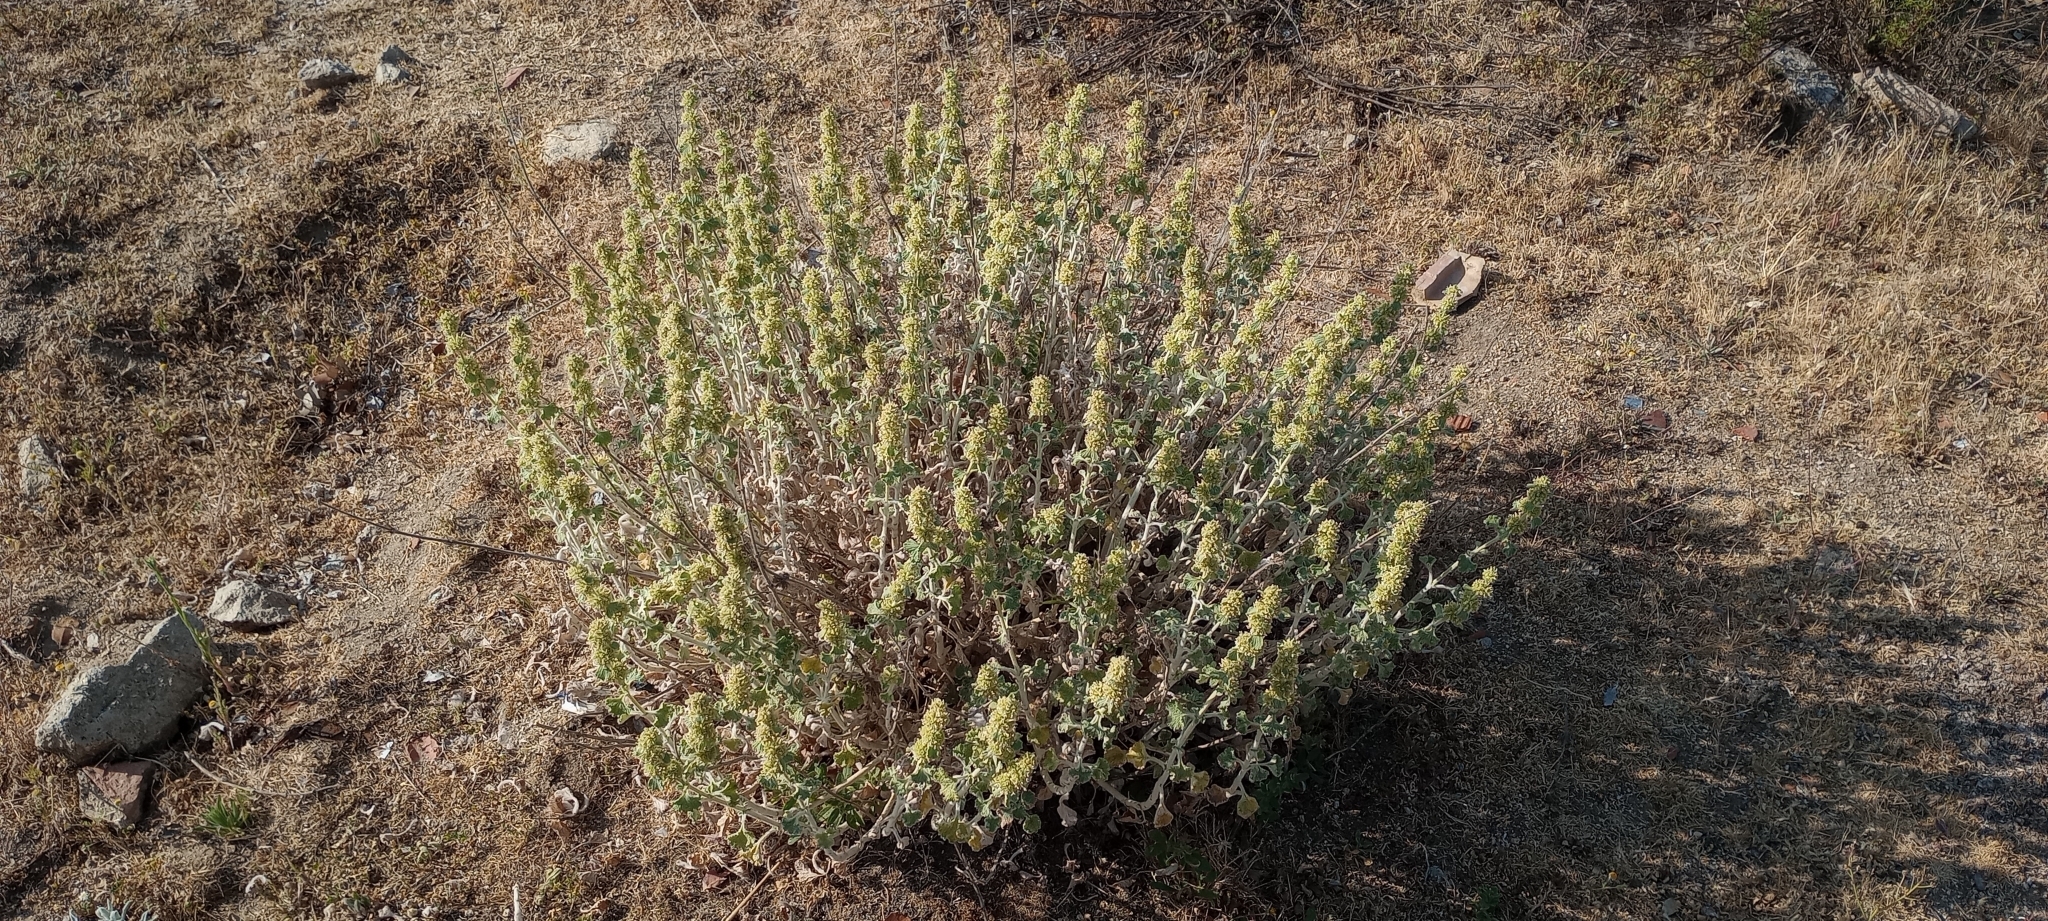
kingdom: Plantae
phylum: Tracheophyta
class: Magnoliopsida
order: Lamiales
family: Lamiaceae
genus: Marrubium
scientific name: Marrubium vulgare
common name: Horehound
